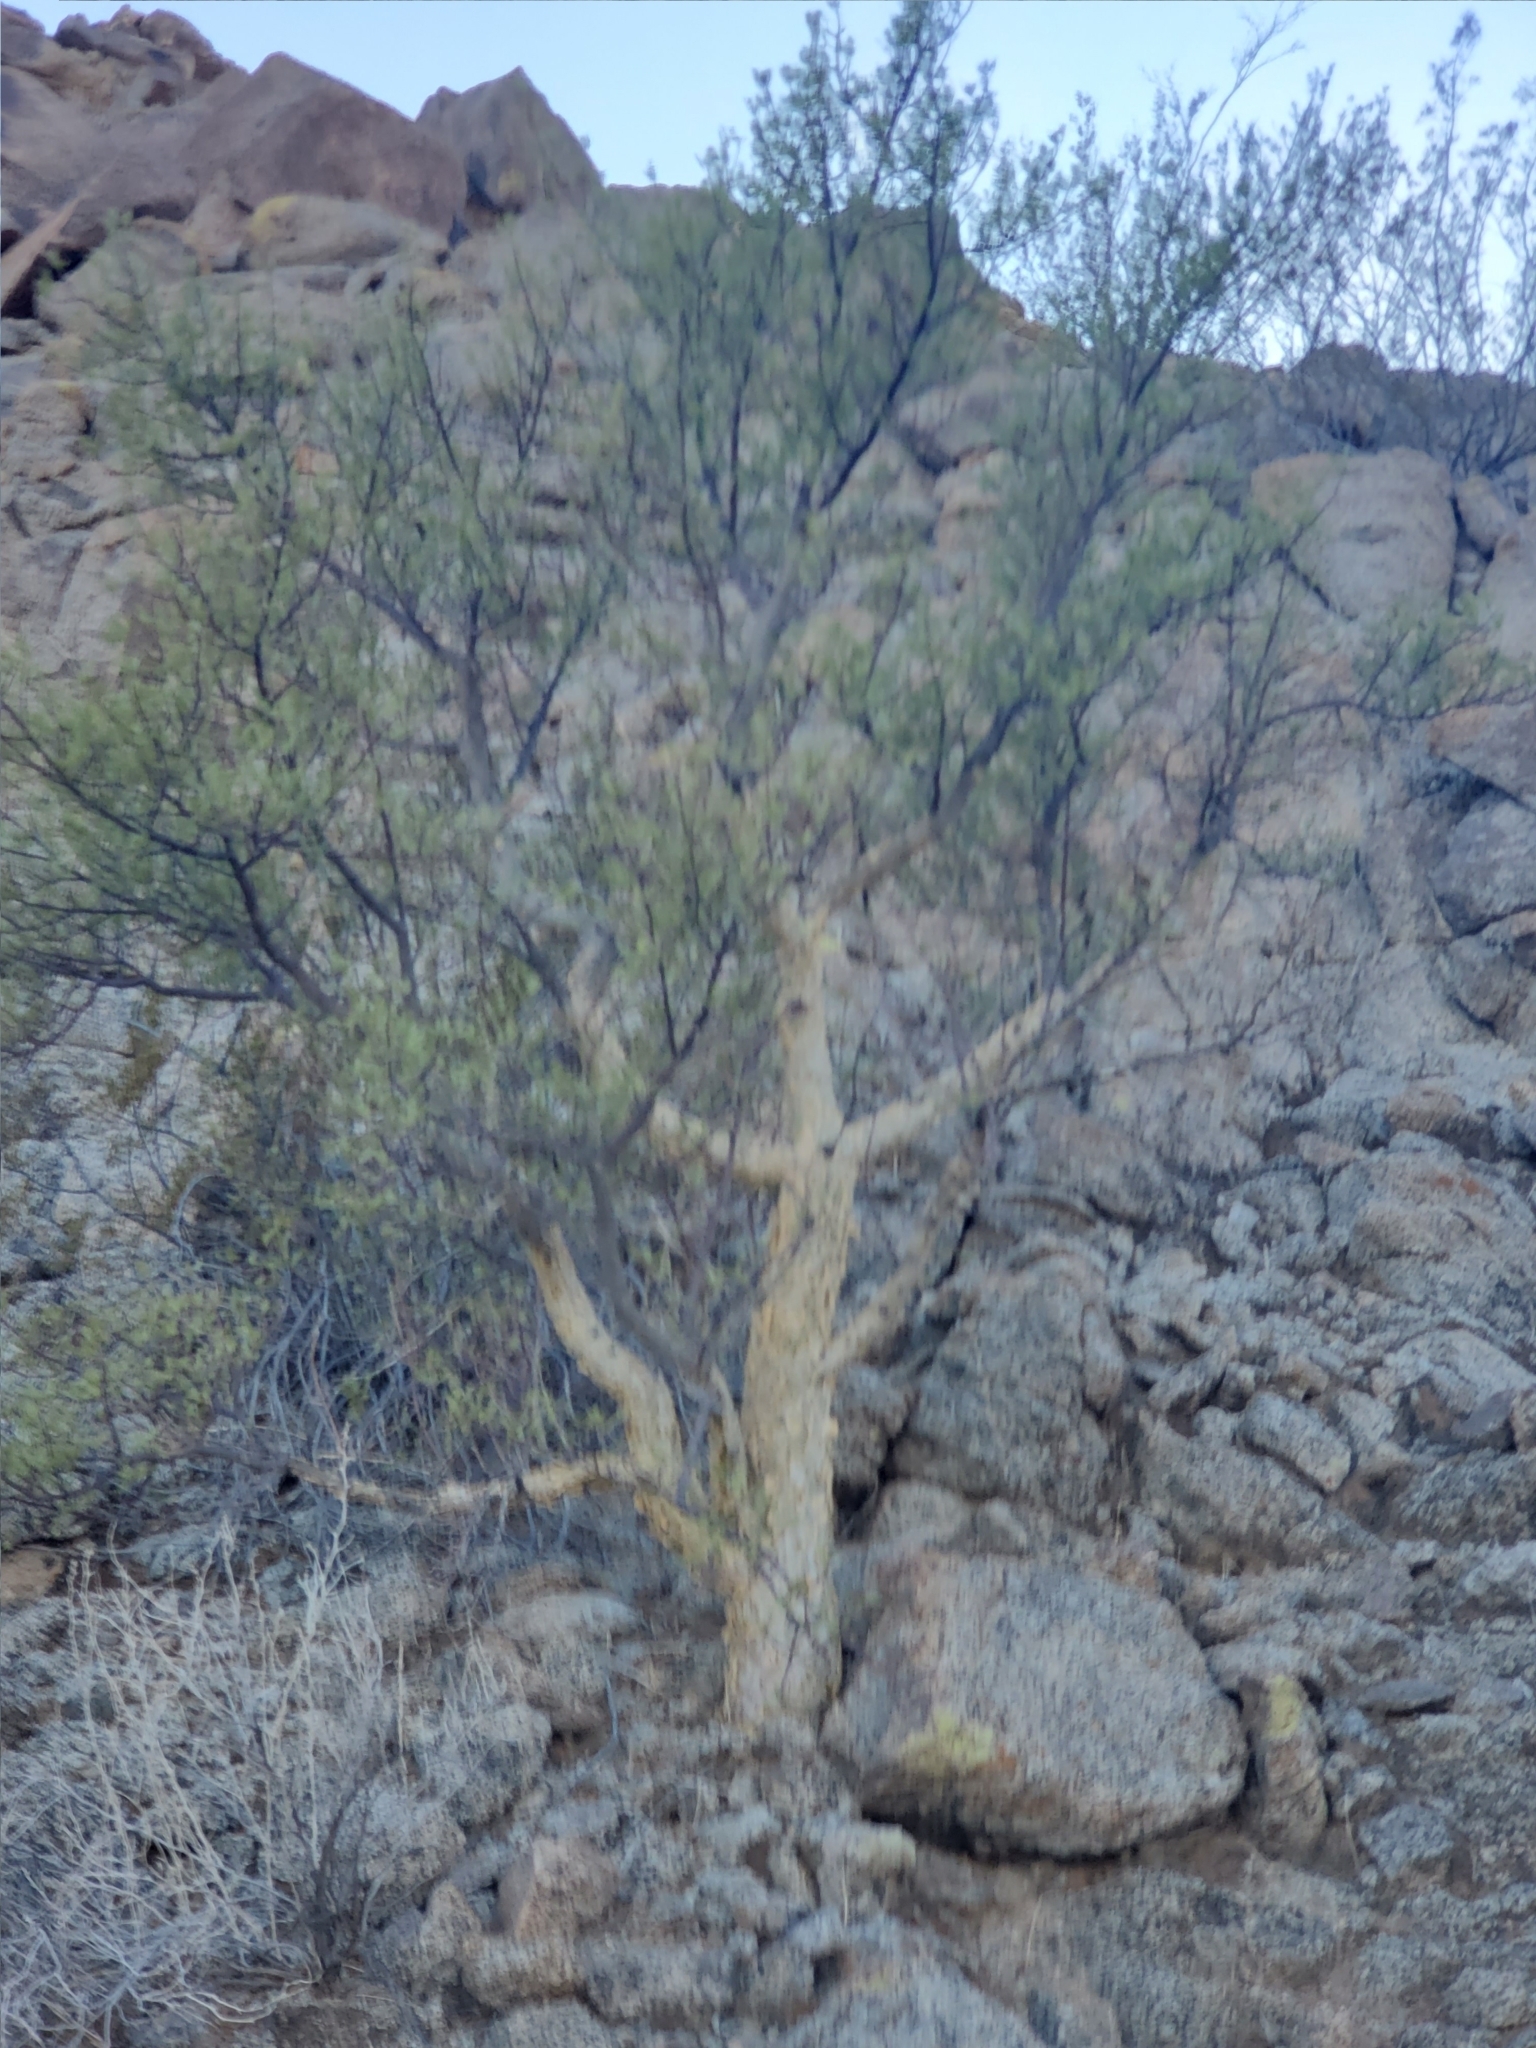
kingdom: Plantae
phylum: Tracheophyta
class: Magnoliopsida
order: Sapindales
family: Burseraceae
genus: Bursera
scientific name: Bursera microphylla
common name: Elephant tree
